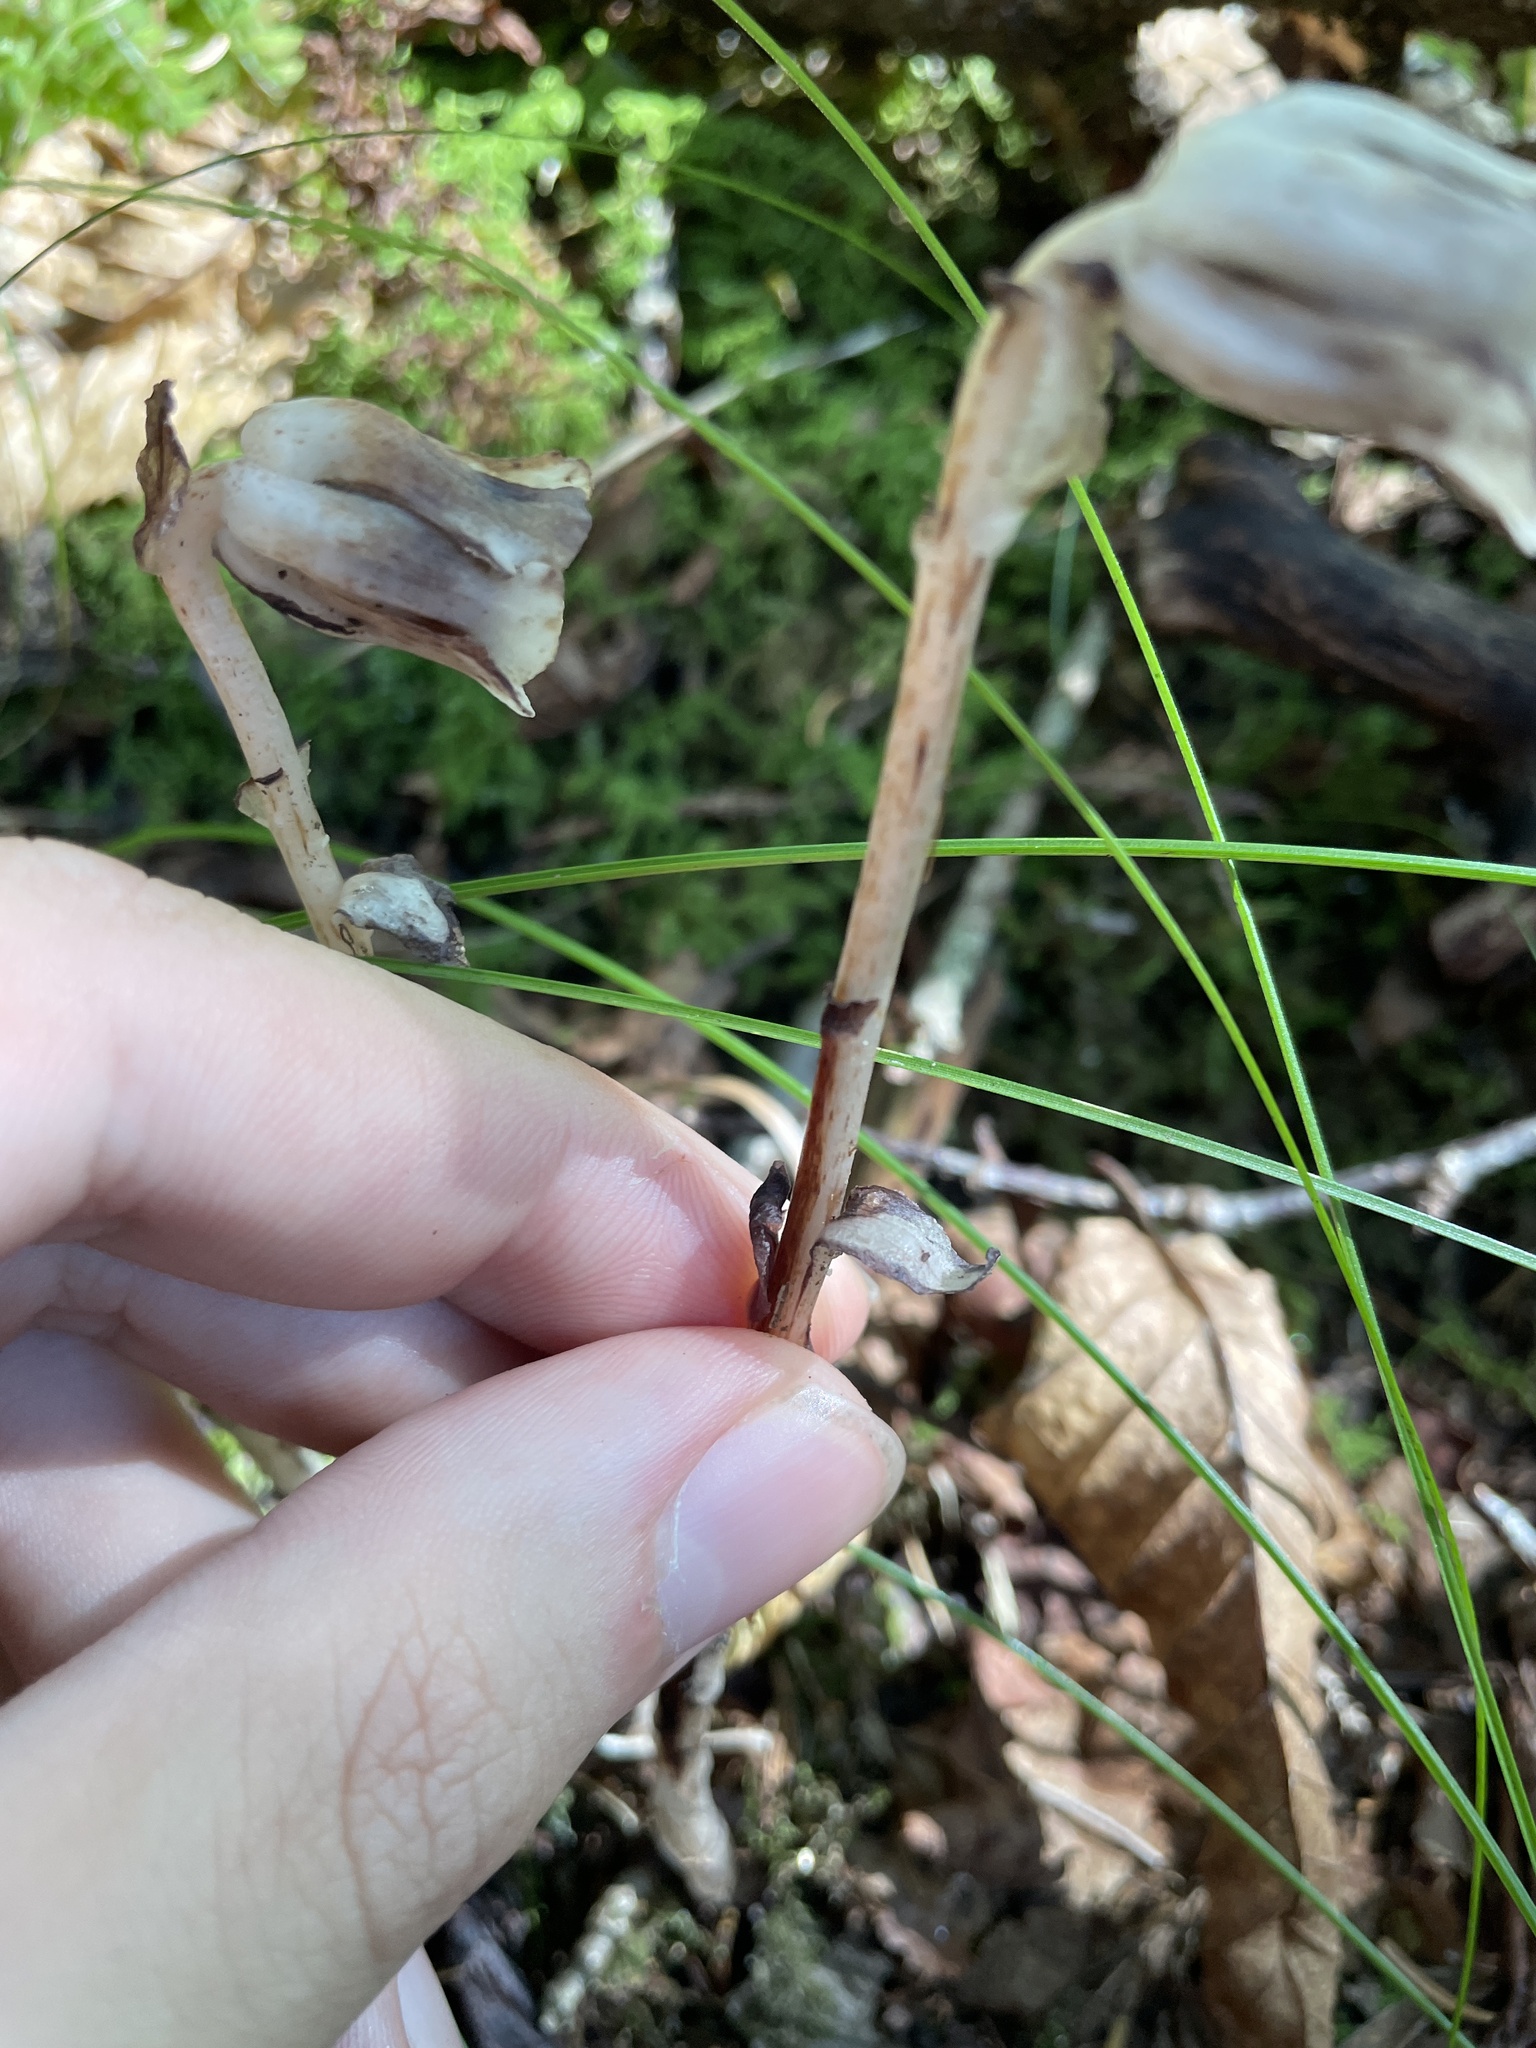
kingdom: Plantae
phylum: Tracheophyta
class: Magnoliopsida
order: Ericales
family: Ericaceae
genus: Monotropa
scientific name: Monotropa uniflora
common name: Convulsion root
